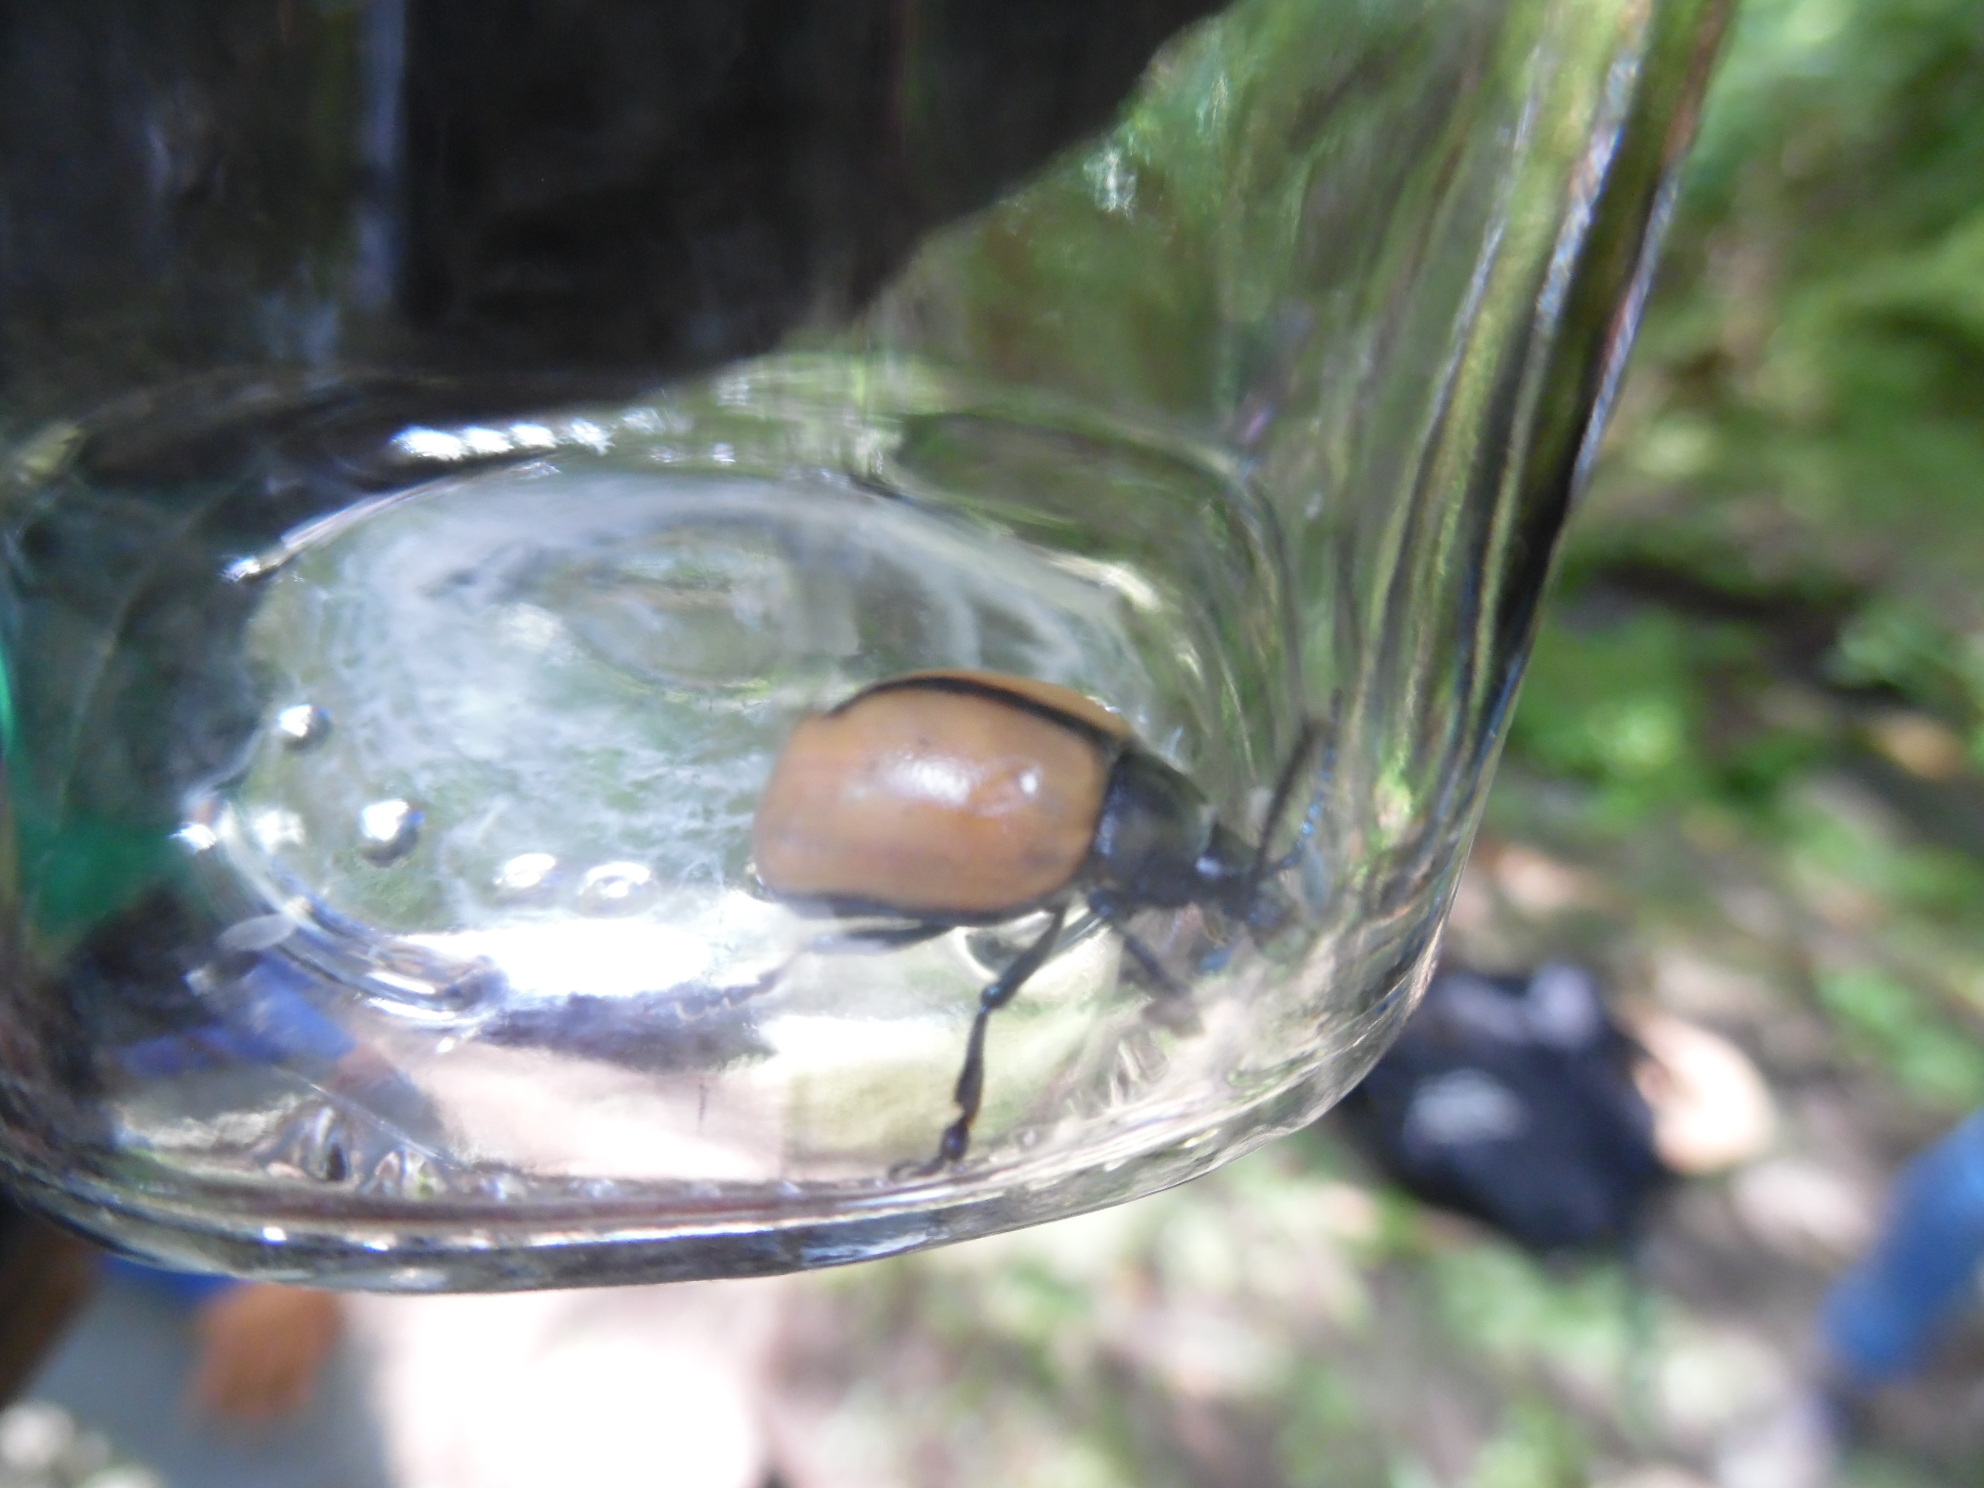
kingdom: Animalia
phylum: Arthropoda
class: Insecta
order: Coleoptera
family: Chrysomelidae
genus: Leptinotarsa
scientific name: Leptinotarsa
